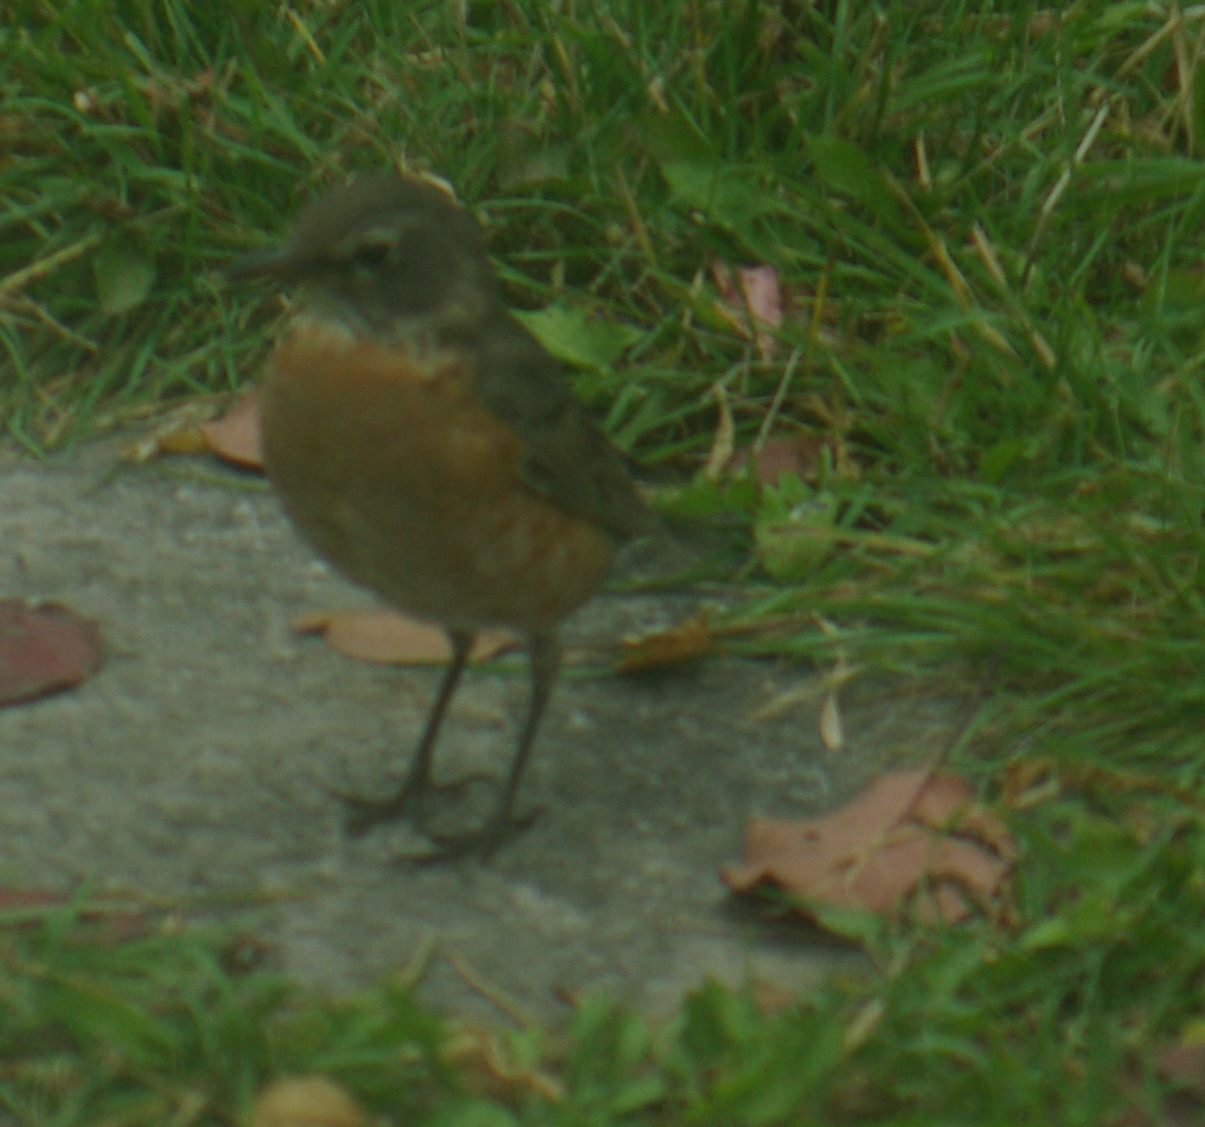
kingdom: Animalia
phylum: Chordata
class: Aves
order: Passeriformes
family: Turdidae
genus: Turdus
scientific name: Turdus migratorius
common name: American robin
